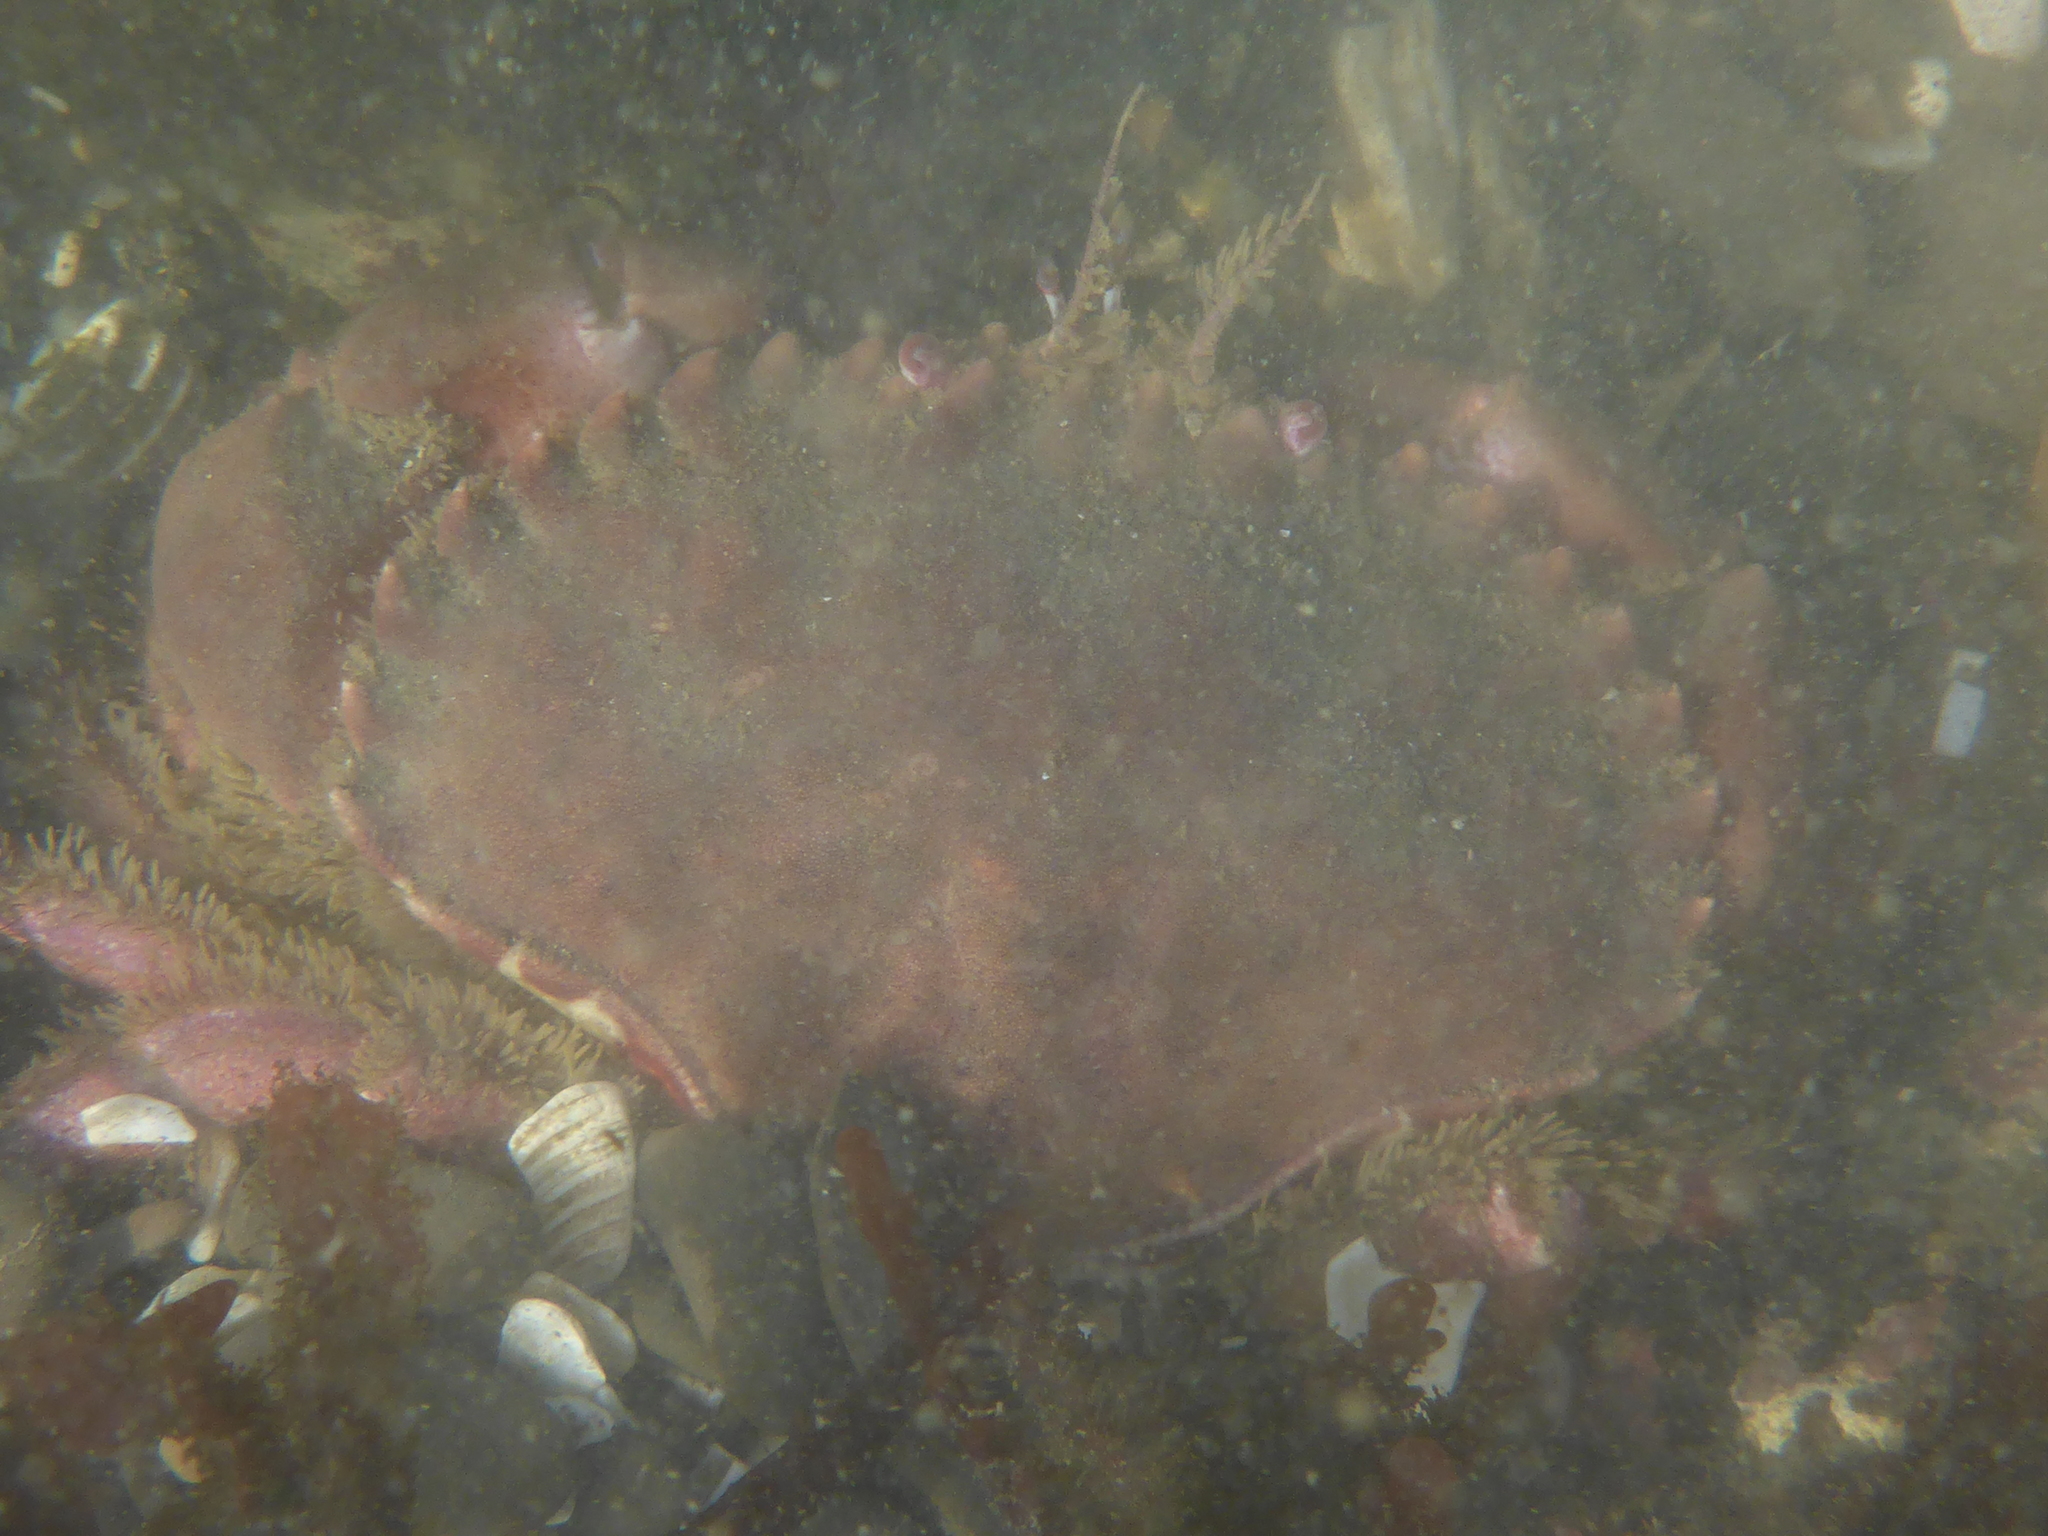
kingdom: Animalia
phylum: Arthropoda
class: Malacostraca
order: Decapoda
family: Cancridae
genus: Romaleon
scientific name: Romaleon antennarium
